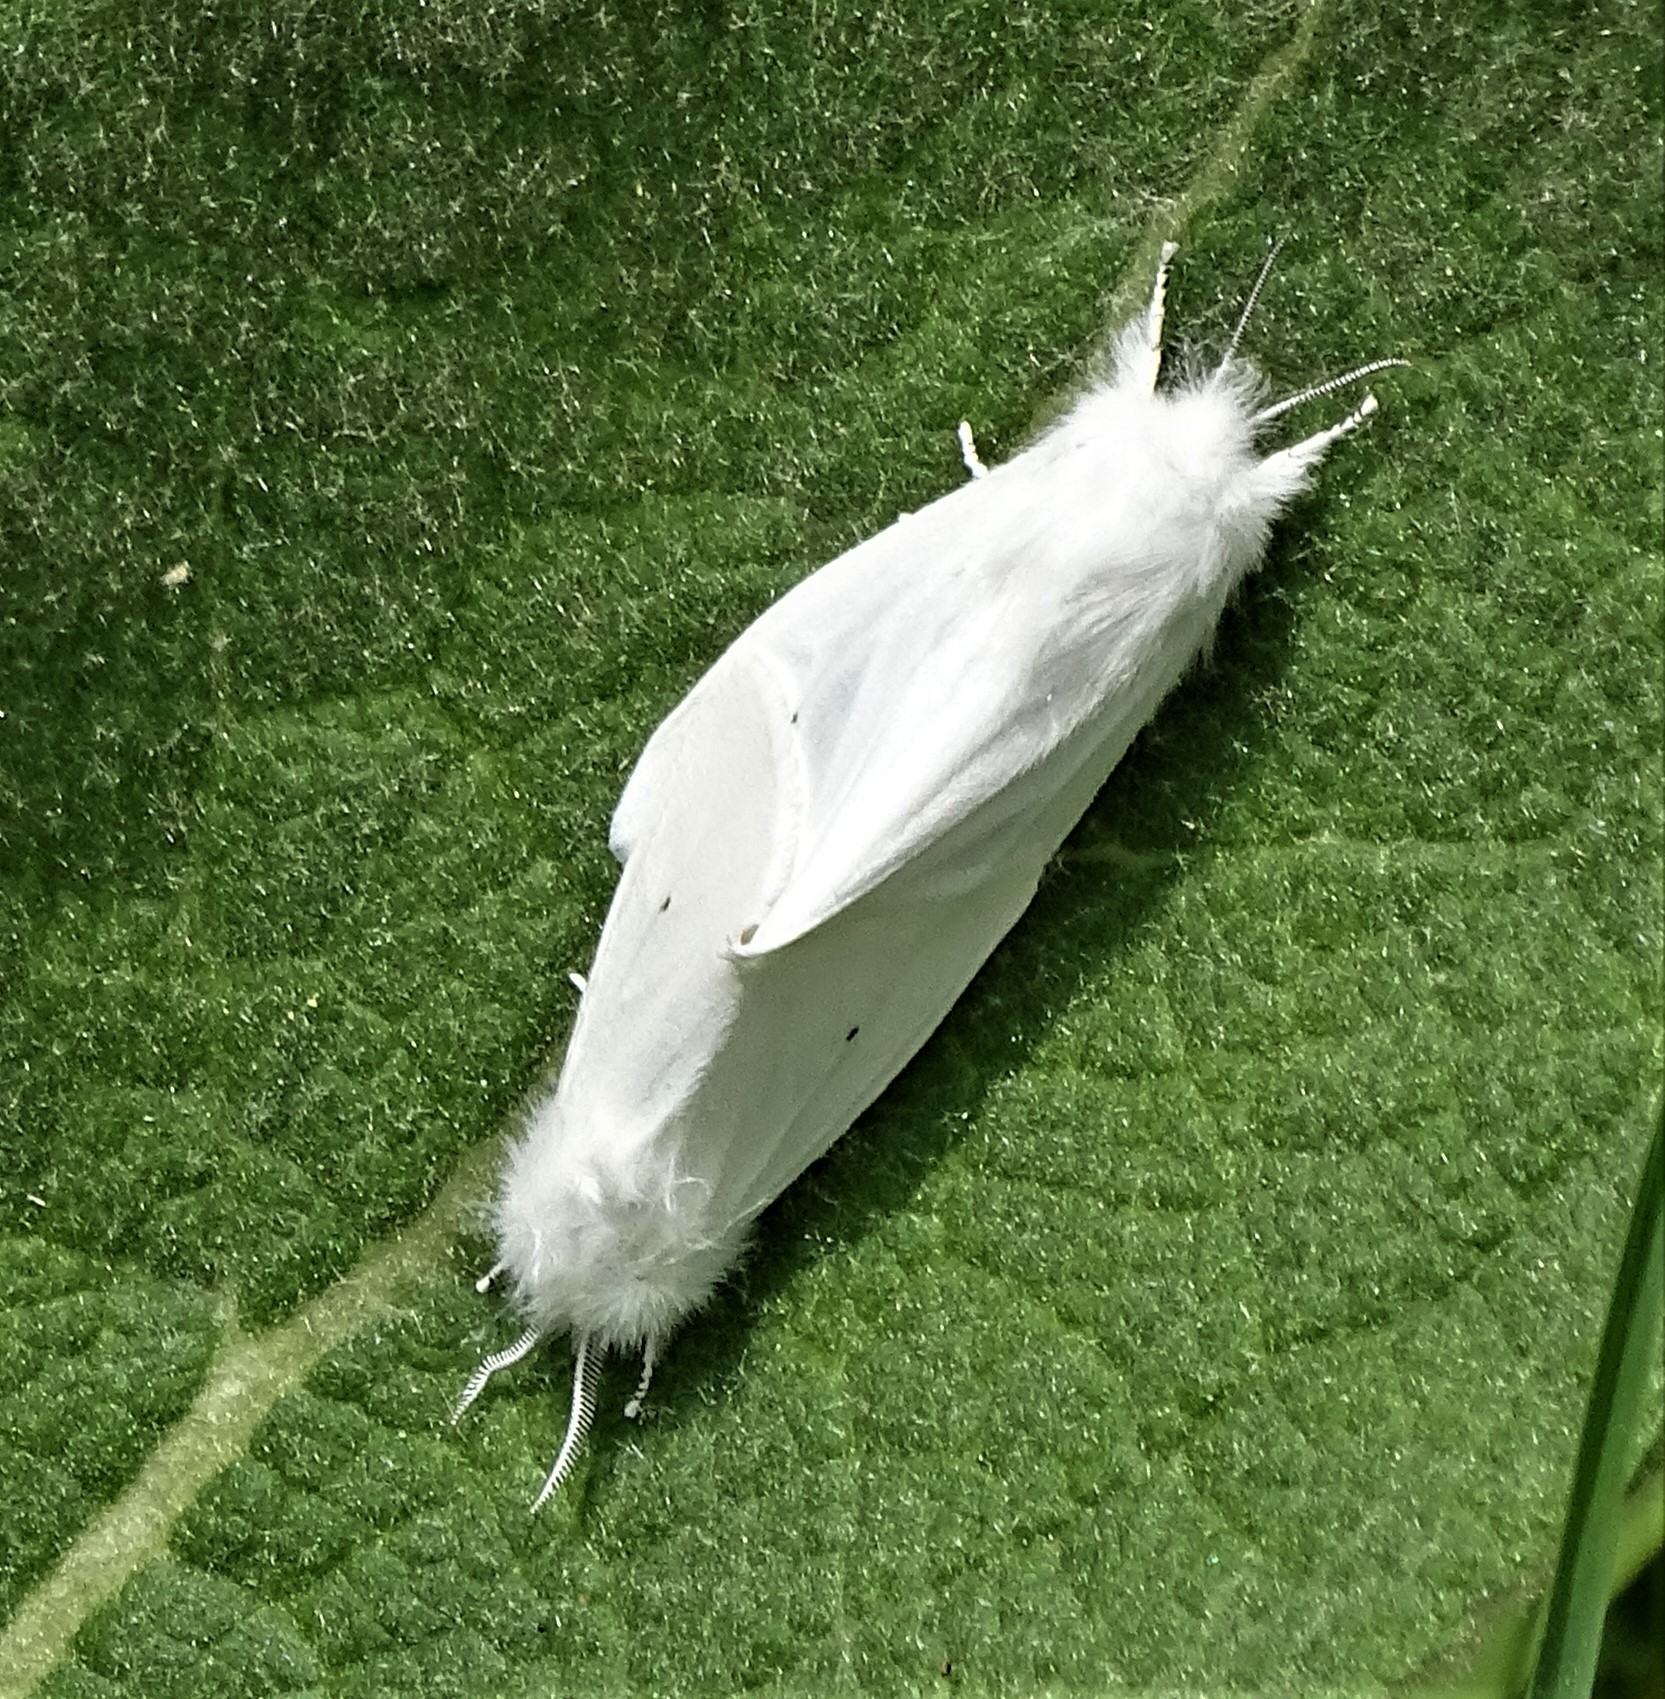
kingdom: Animalia
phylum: Arthropoda
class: Insecta
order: Lepidoptera
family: Erebidae
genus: Spilosoma
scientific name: Spilosoma virginica
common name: Virginia tiger moth
